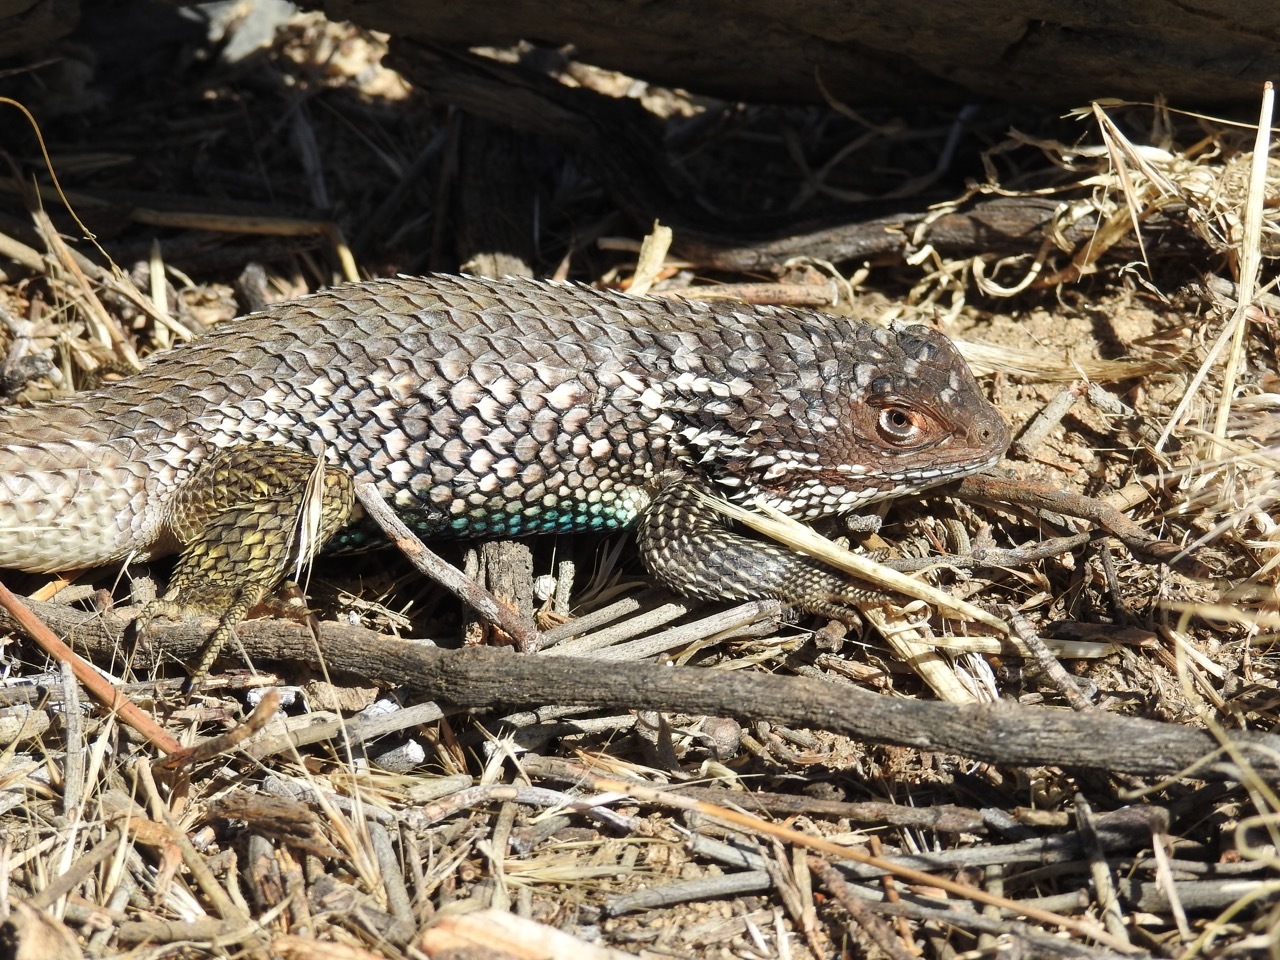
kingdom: Animalia
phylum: Chordata
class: Squamata
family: Phrynosomatidae
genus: Sceloporus
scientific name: Sceloporus zosteromus
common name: Baja spiny lizard
